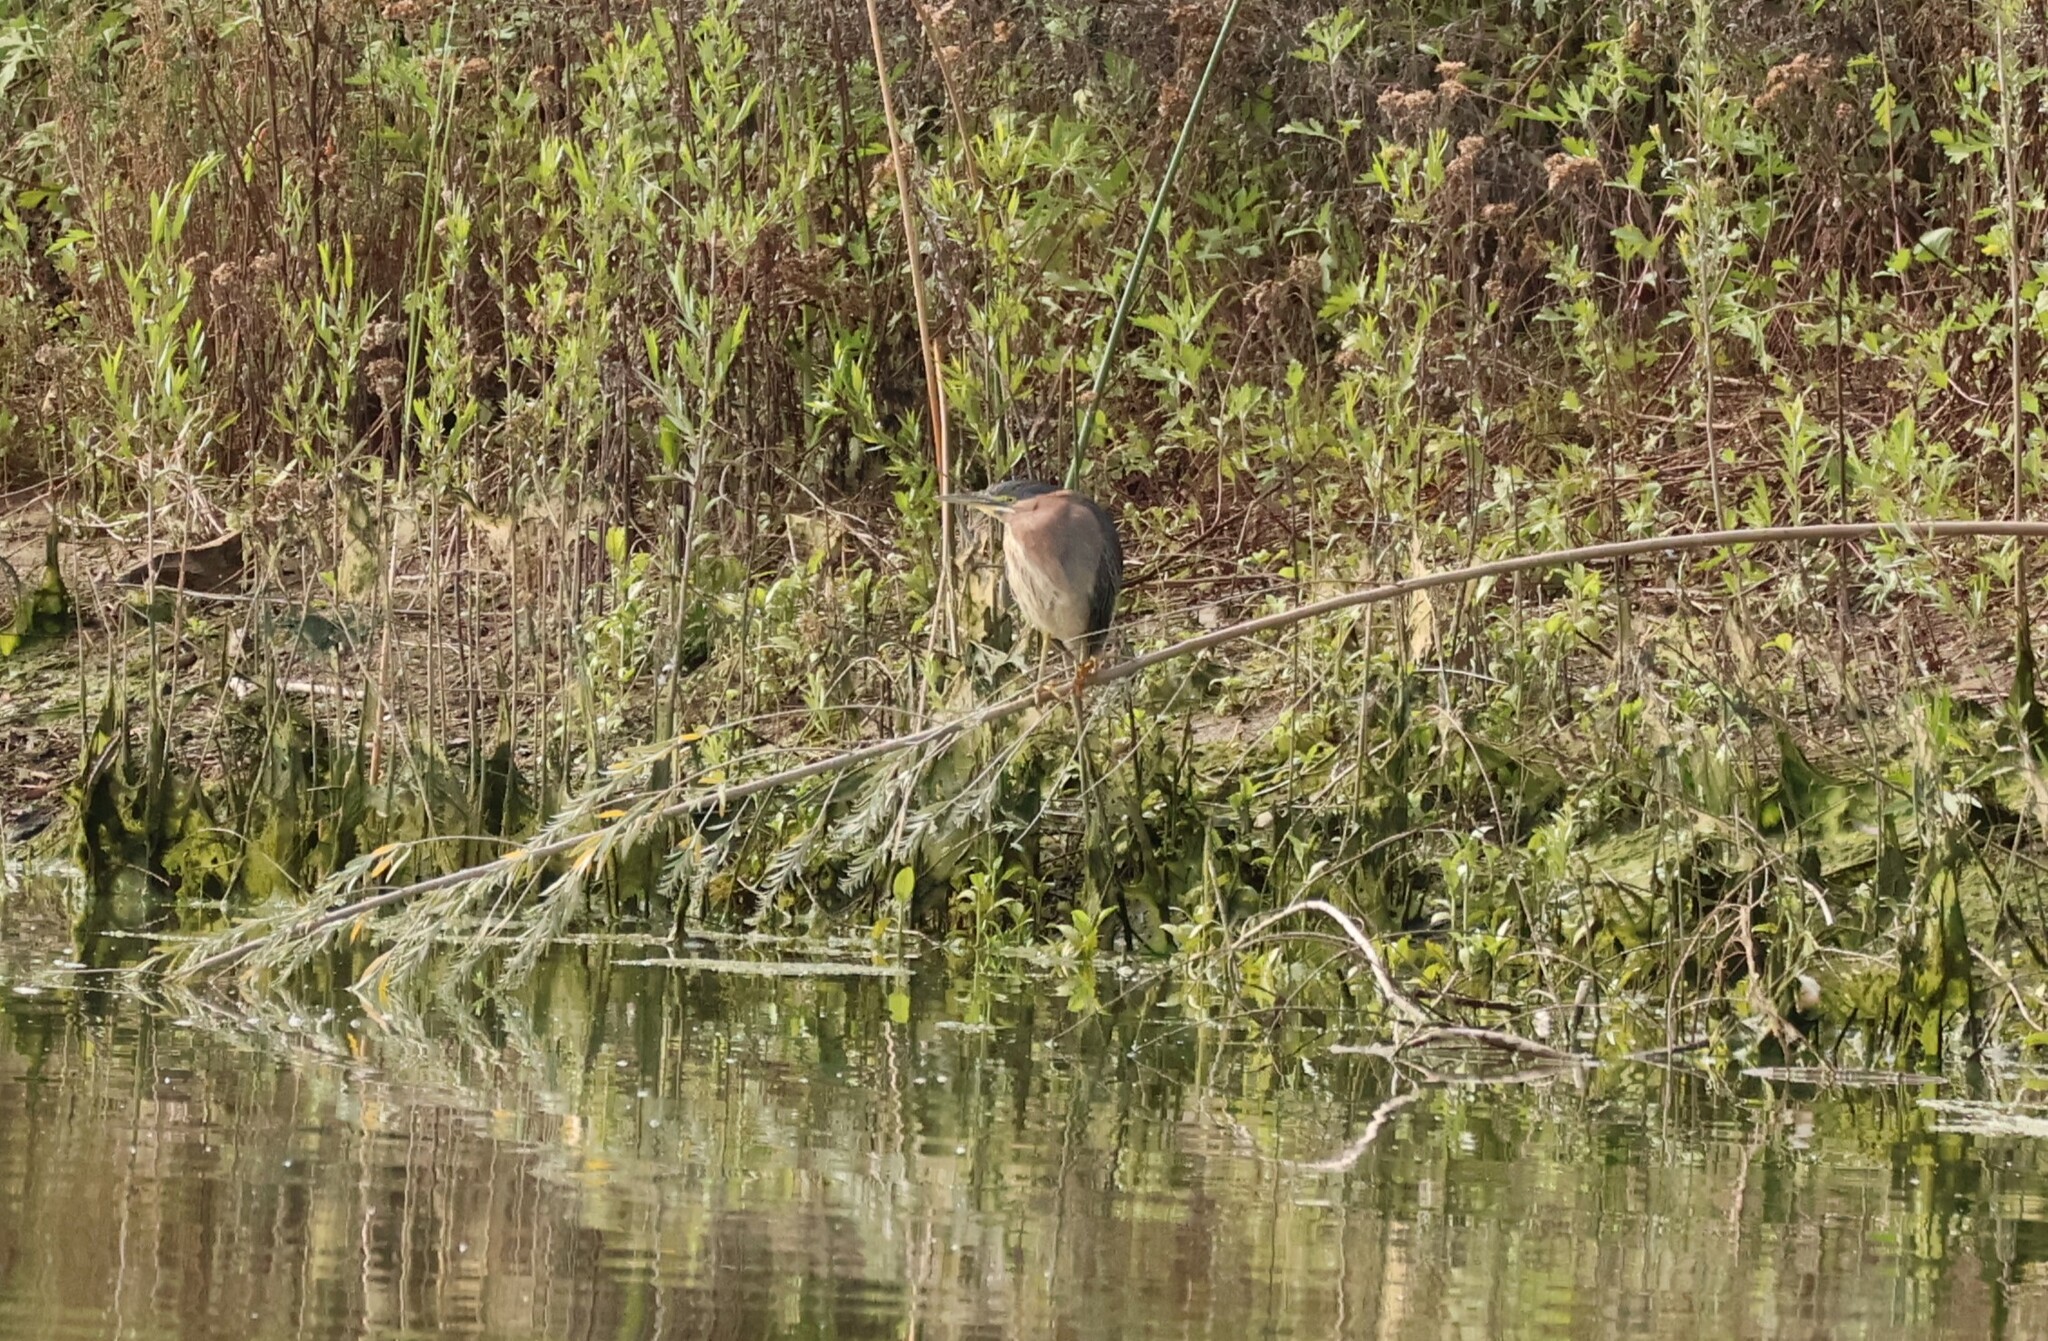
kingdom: Animalia
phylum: Chordata
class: Aves
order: Pelecaniformes
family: Ardeidae
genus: Butorides
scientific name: Butorides virescens
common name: Green heron
